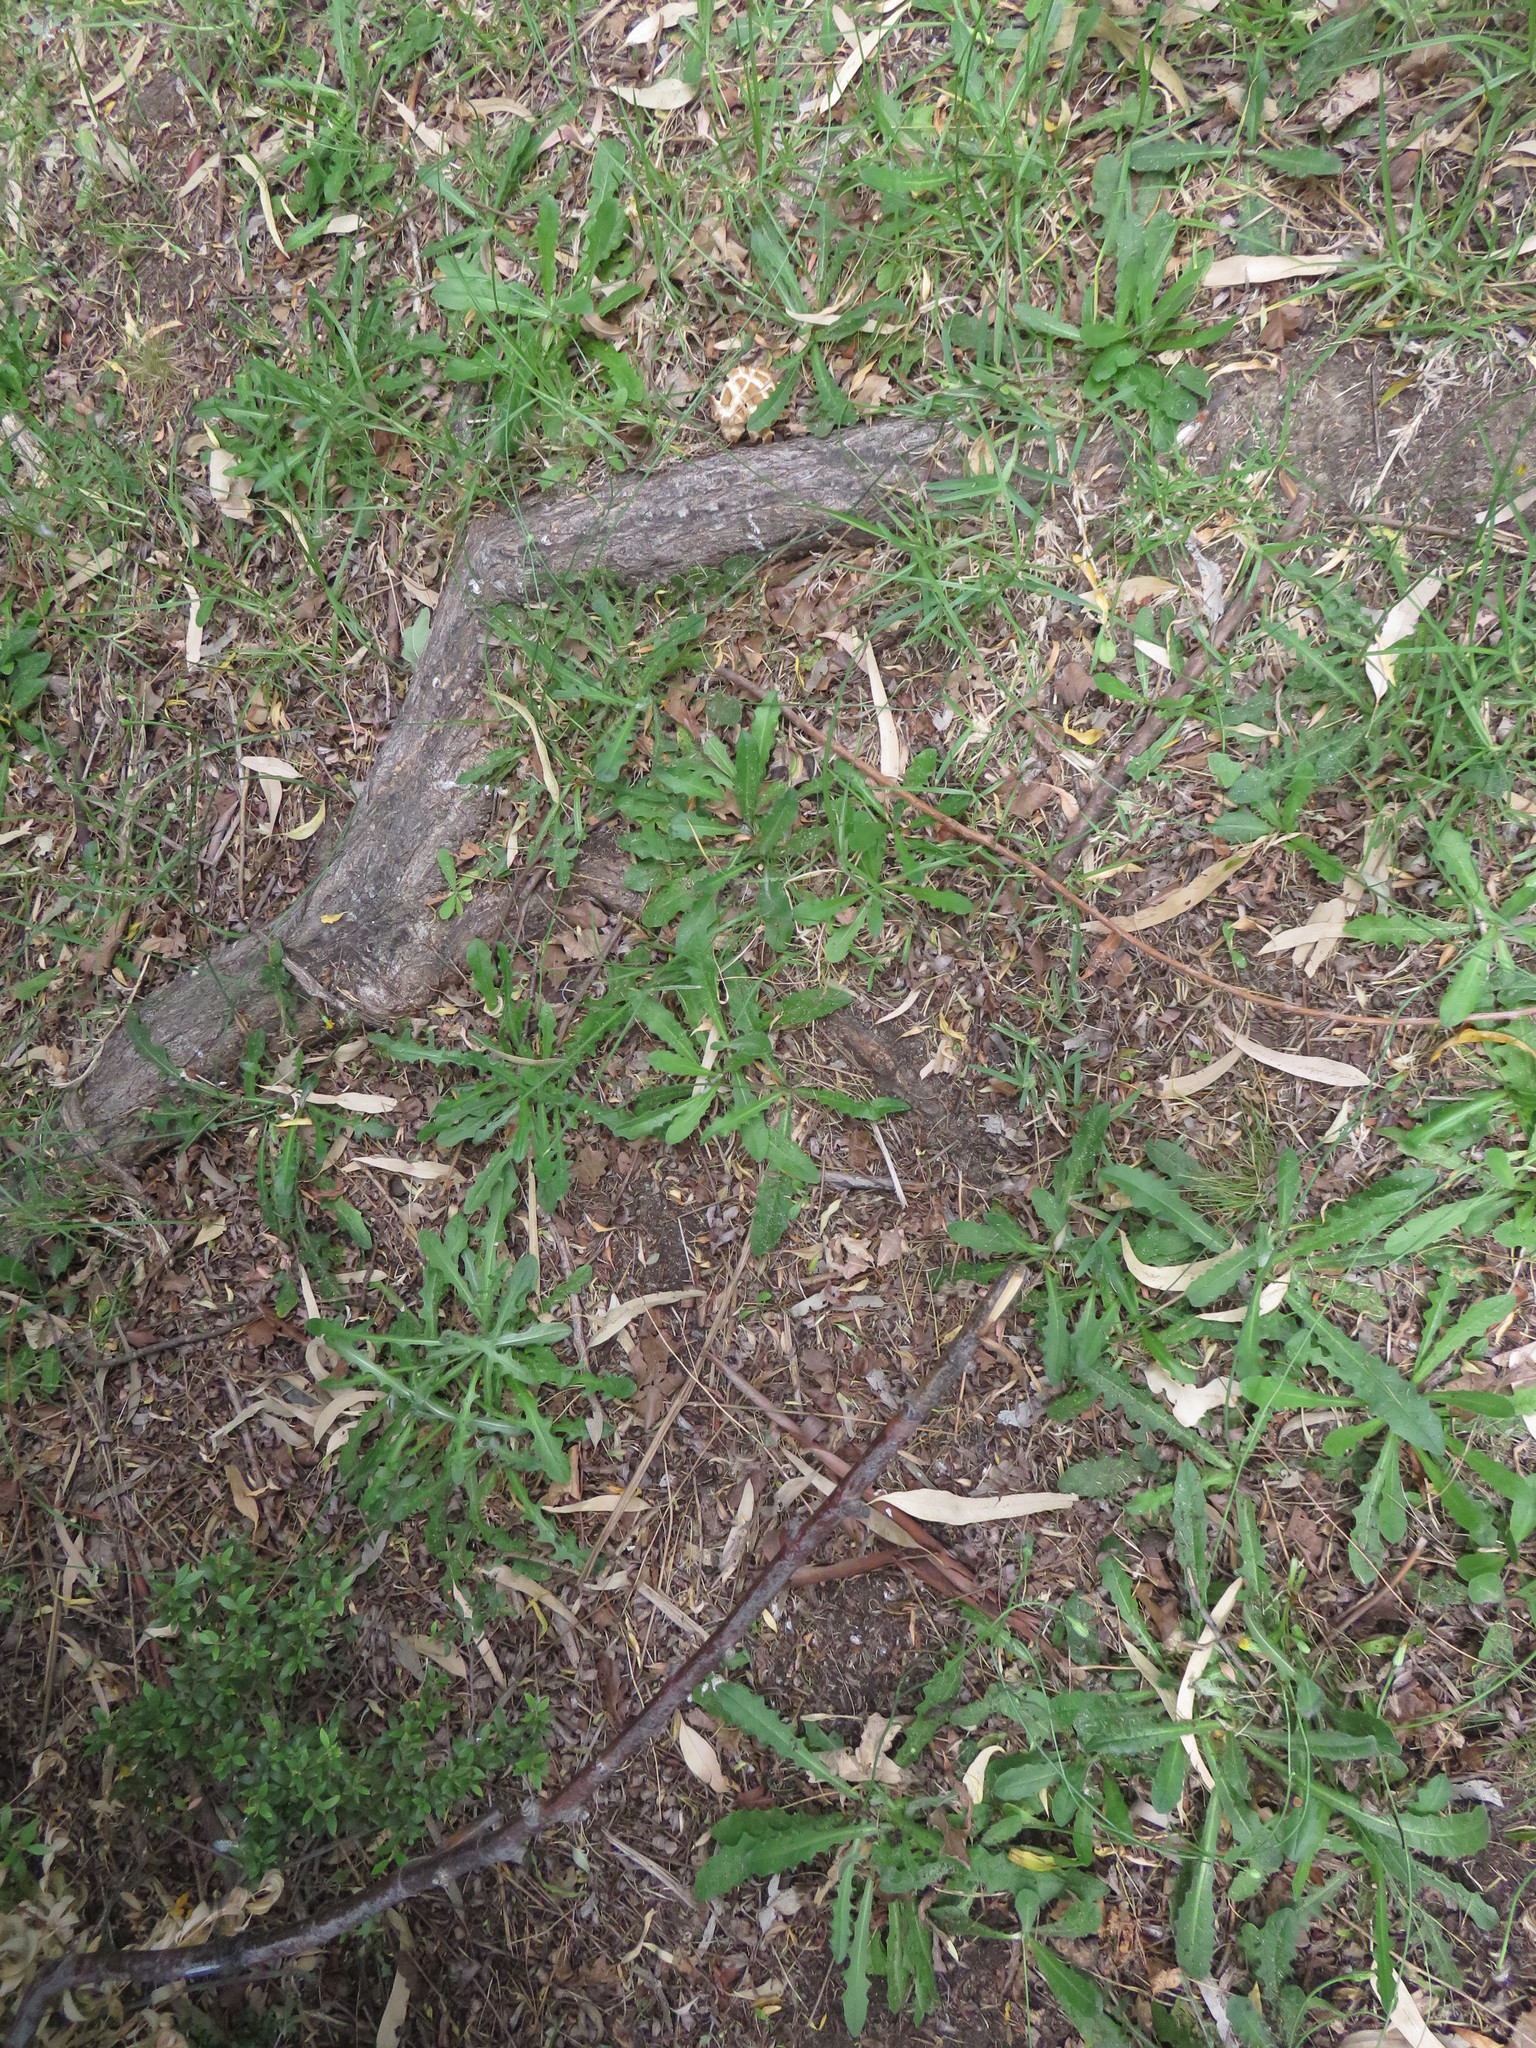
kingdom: Plantae
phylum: Tracheophyta
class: Magnoliopsida
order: Asterales
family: Asteraceae
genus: Hypochaeris
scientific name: Hypochaeris radicata
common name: Flatweed
